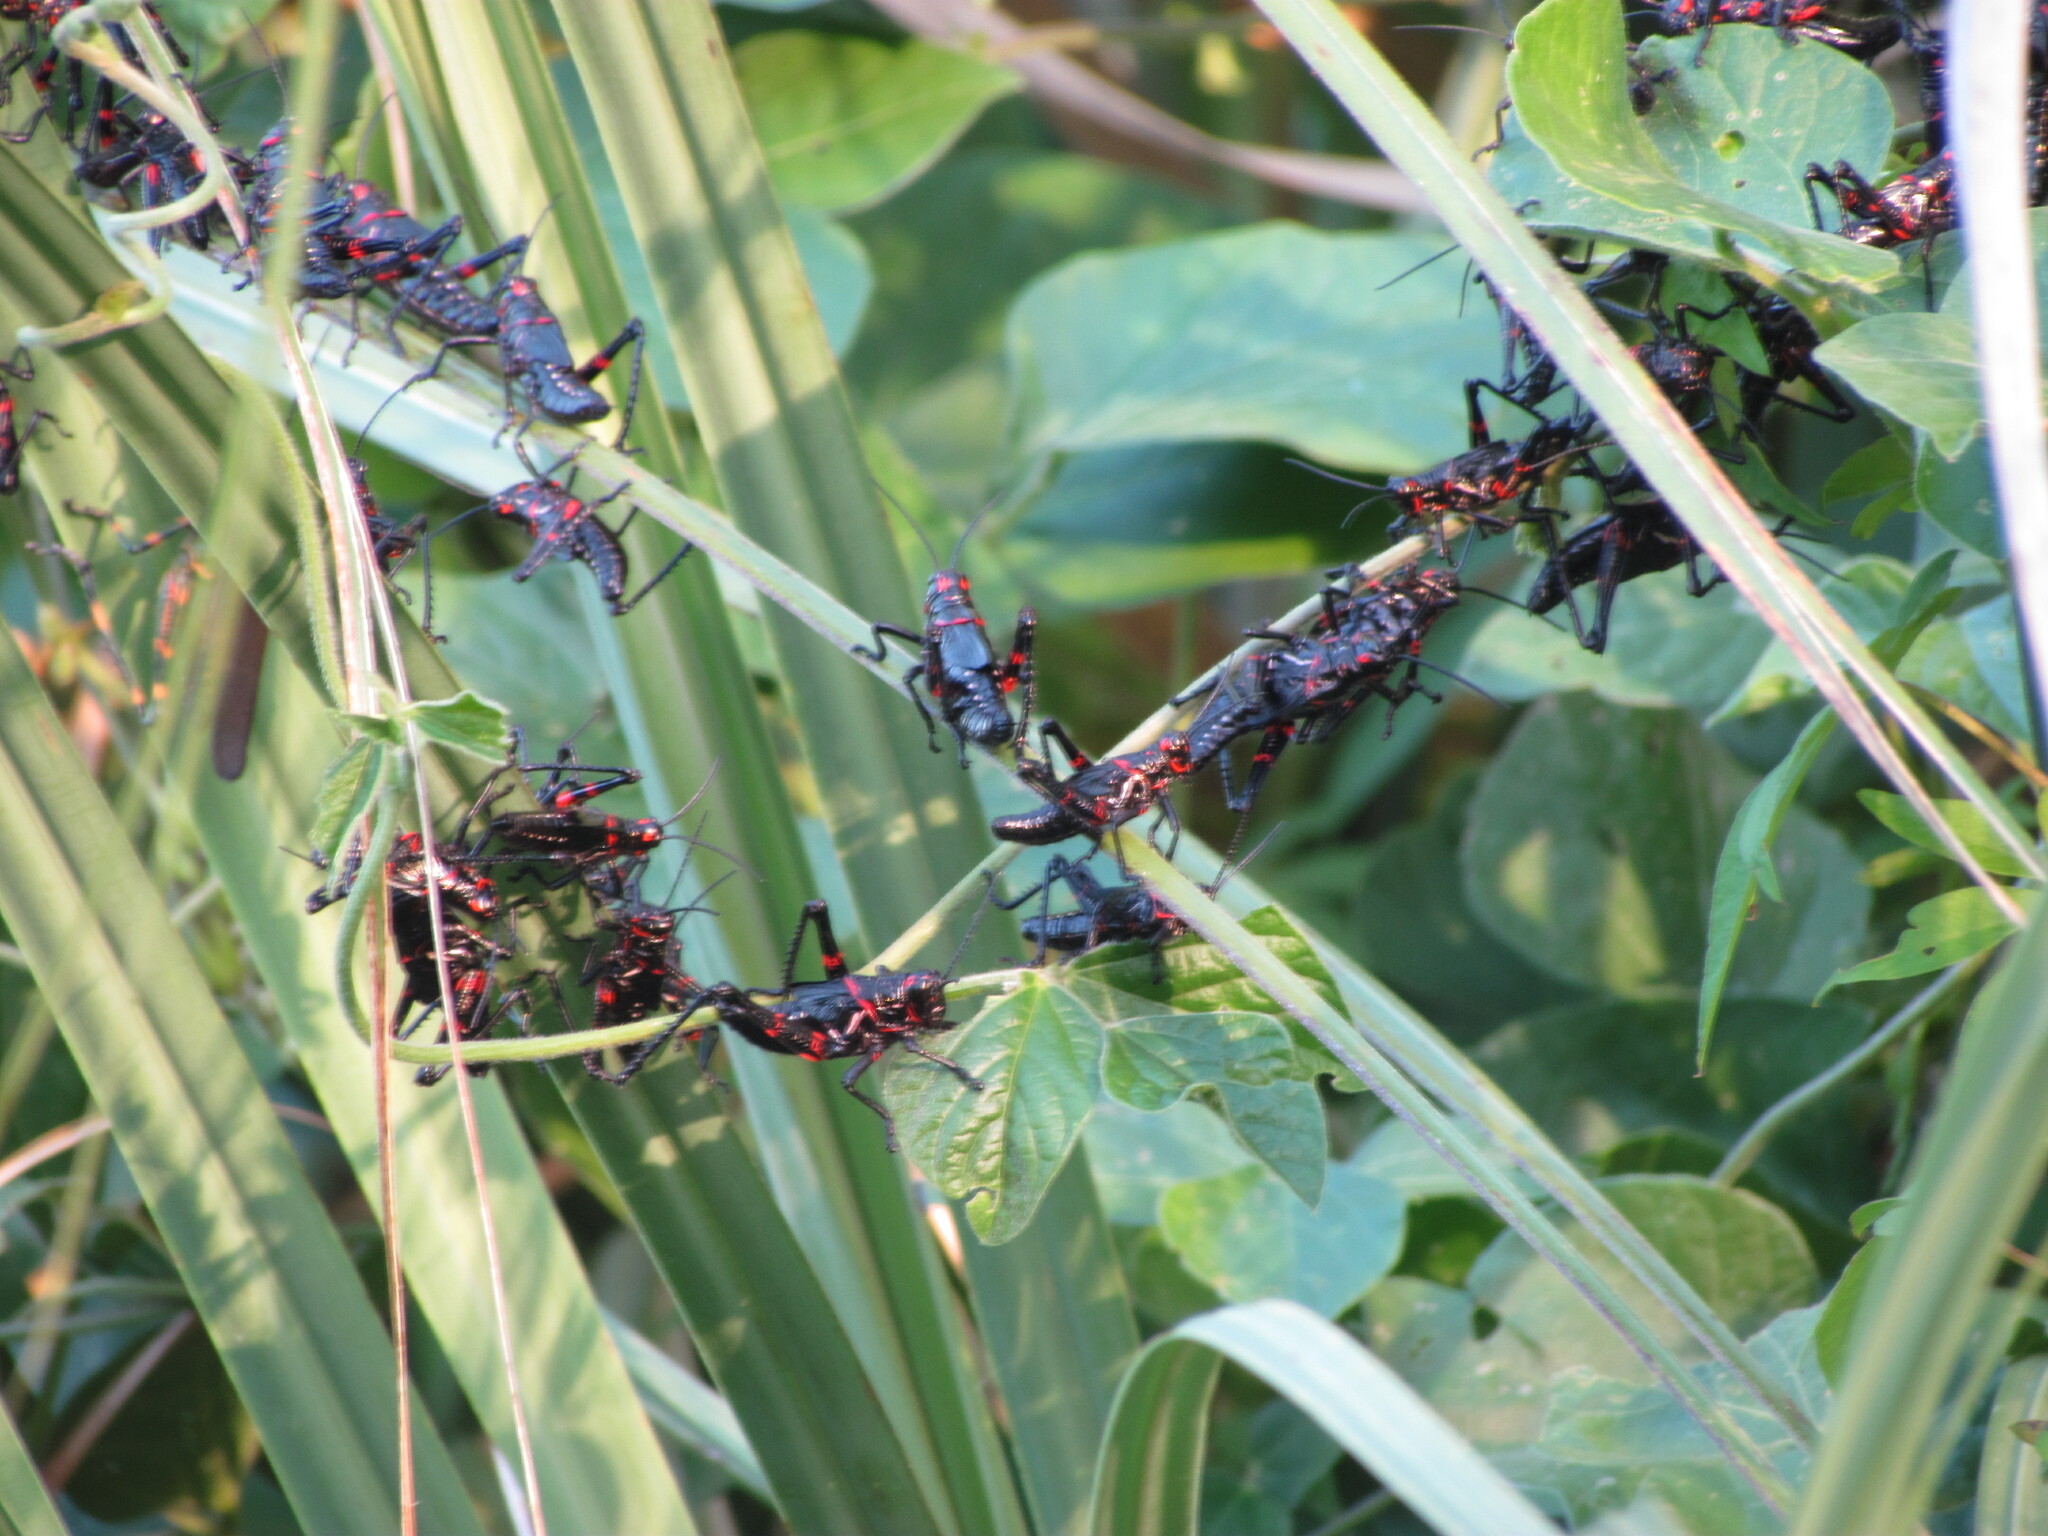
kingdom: Animalia
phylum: Arthropoda
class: Insecta
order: Orthoptera
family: Romaleidae
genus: Chromacris
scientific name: Chromacris speciosa
